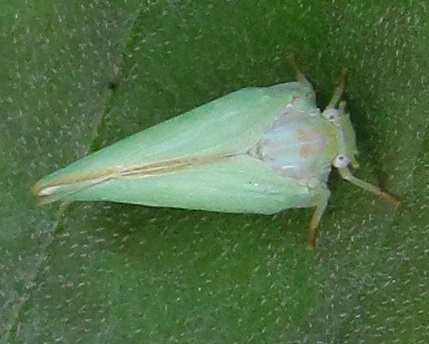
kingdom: Animalia
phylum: Arthropoda
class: Insecta
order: Hemiptera
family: Flatidae
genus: Ormenoides
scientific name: Ormenoides venusta
